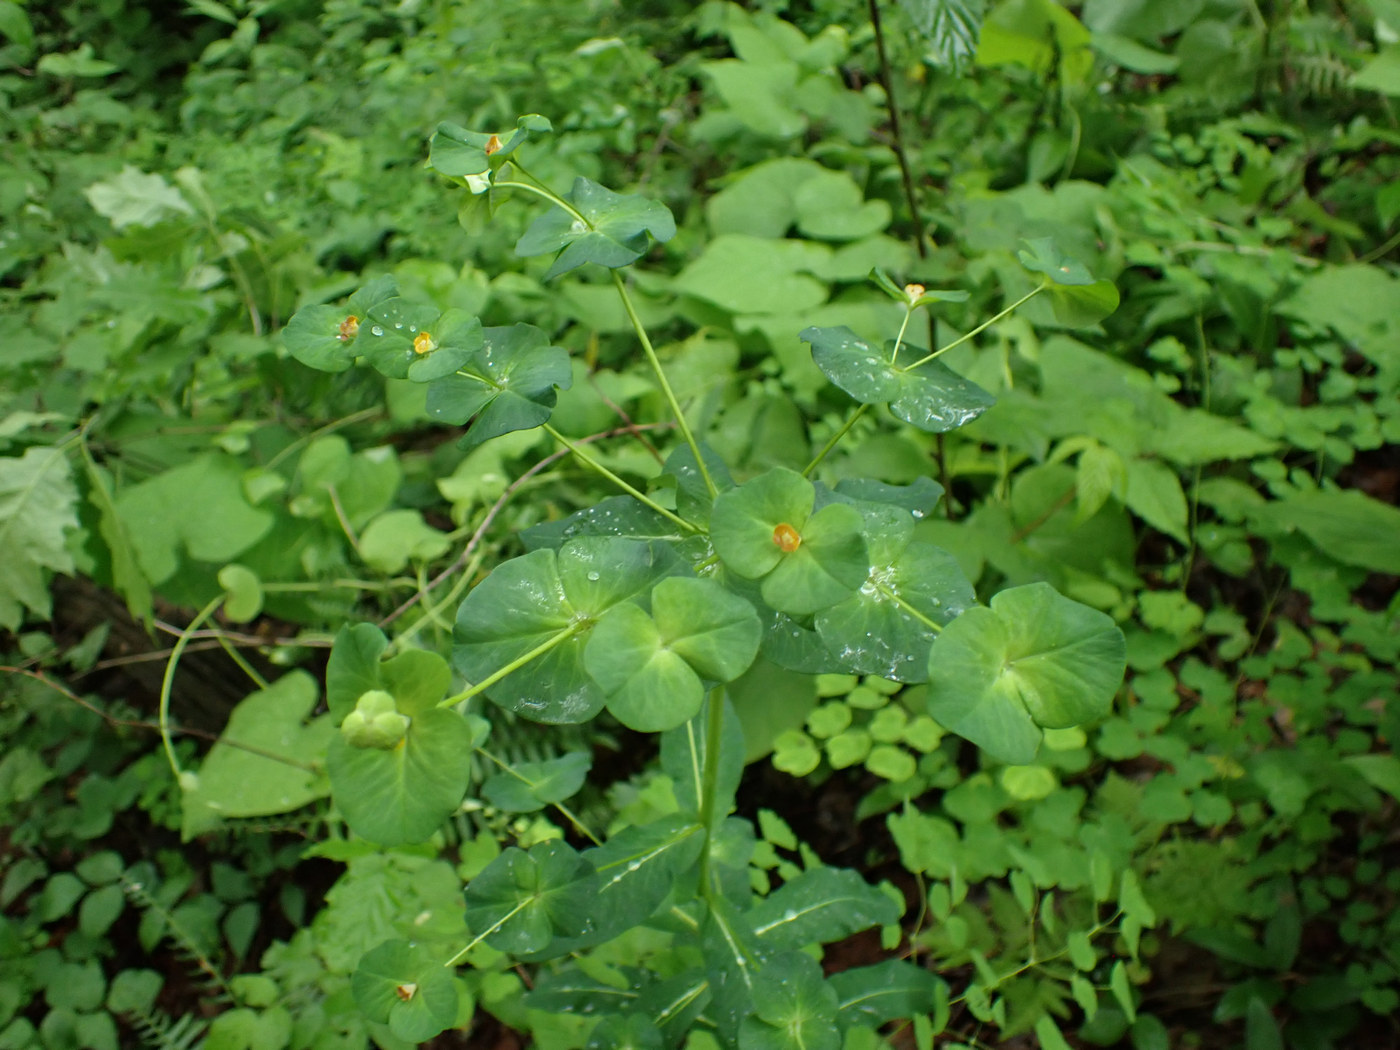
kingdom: Plantae
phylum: Tracheophyta
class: Magnoliopsida
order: Malpighiales
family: Euphorbiaceae
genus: Euphorbia
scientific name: Euphorbia purpurea
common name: Darlington's spurge
